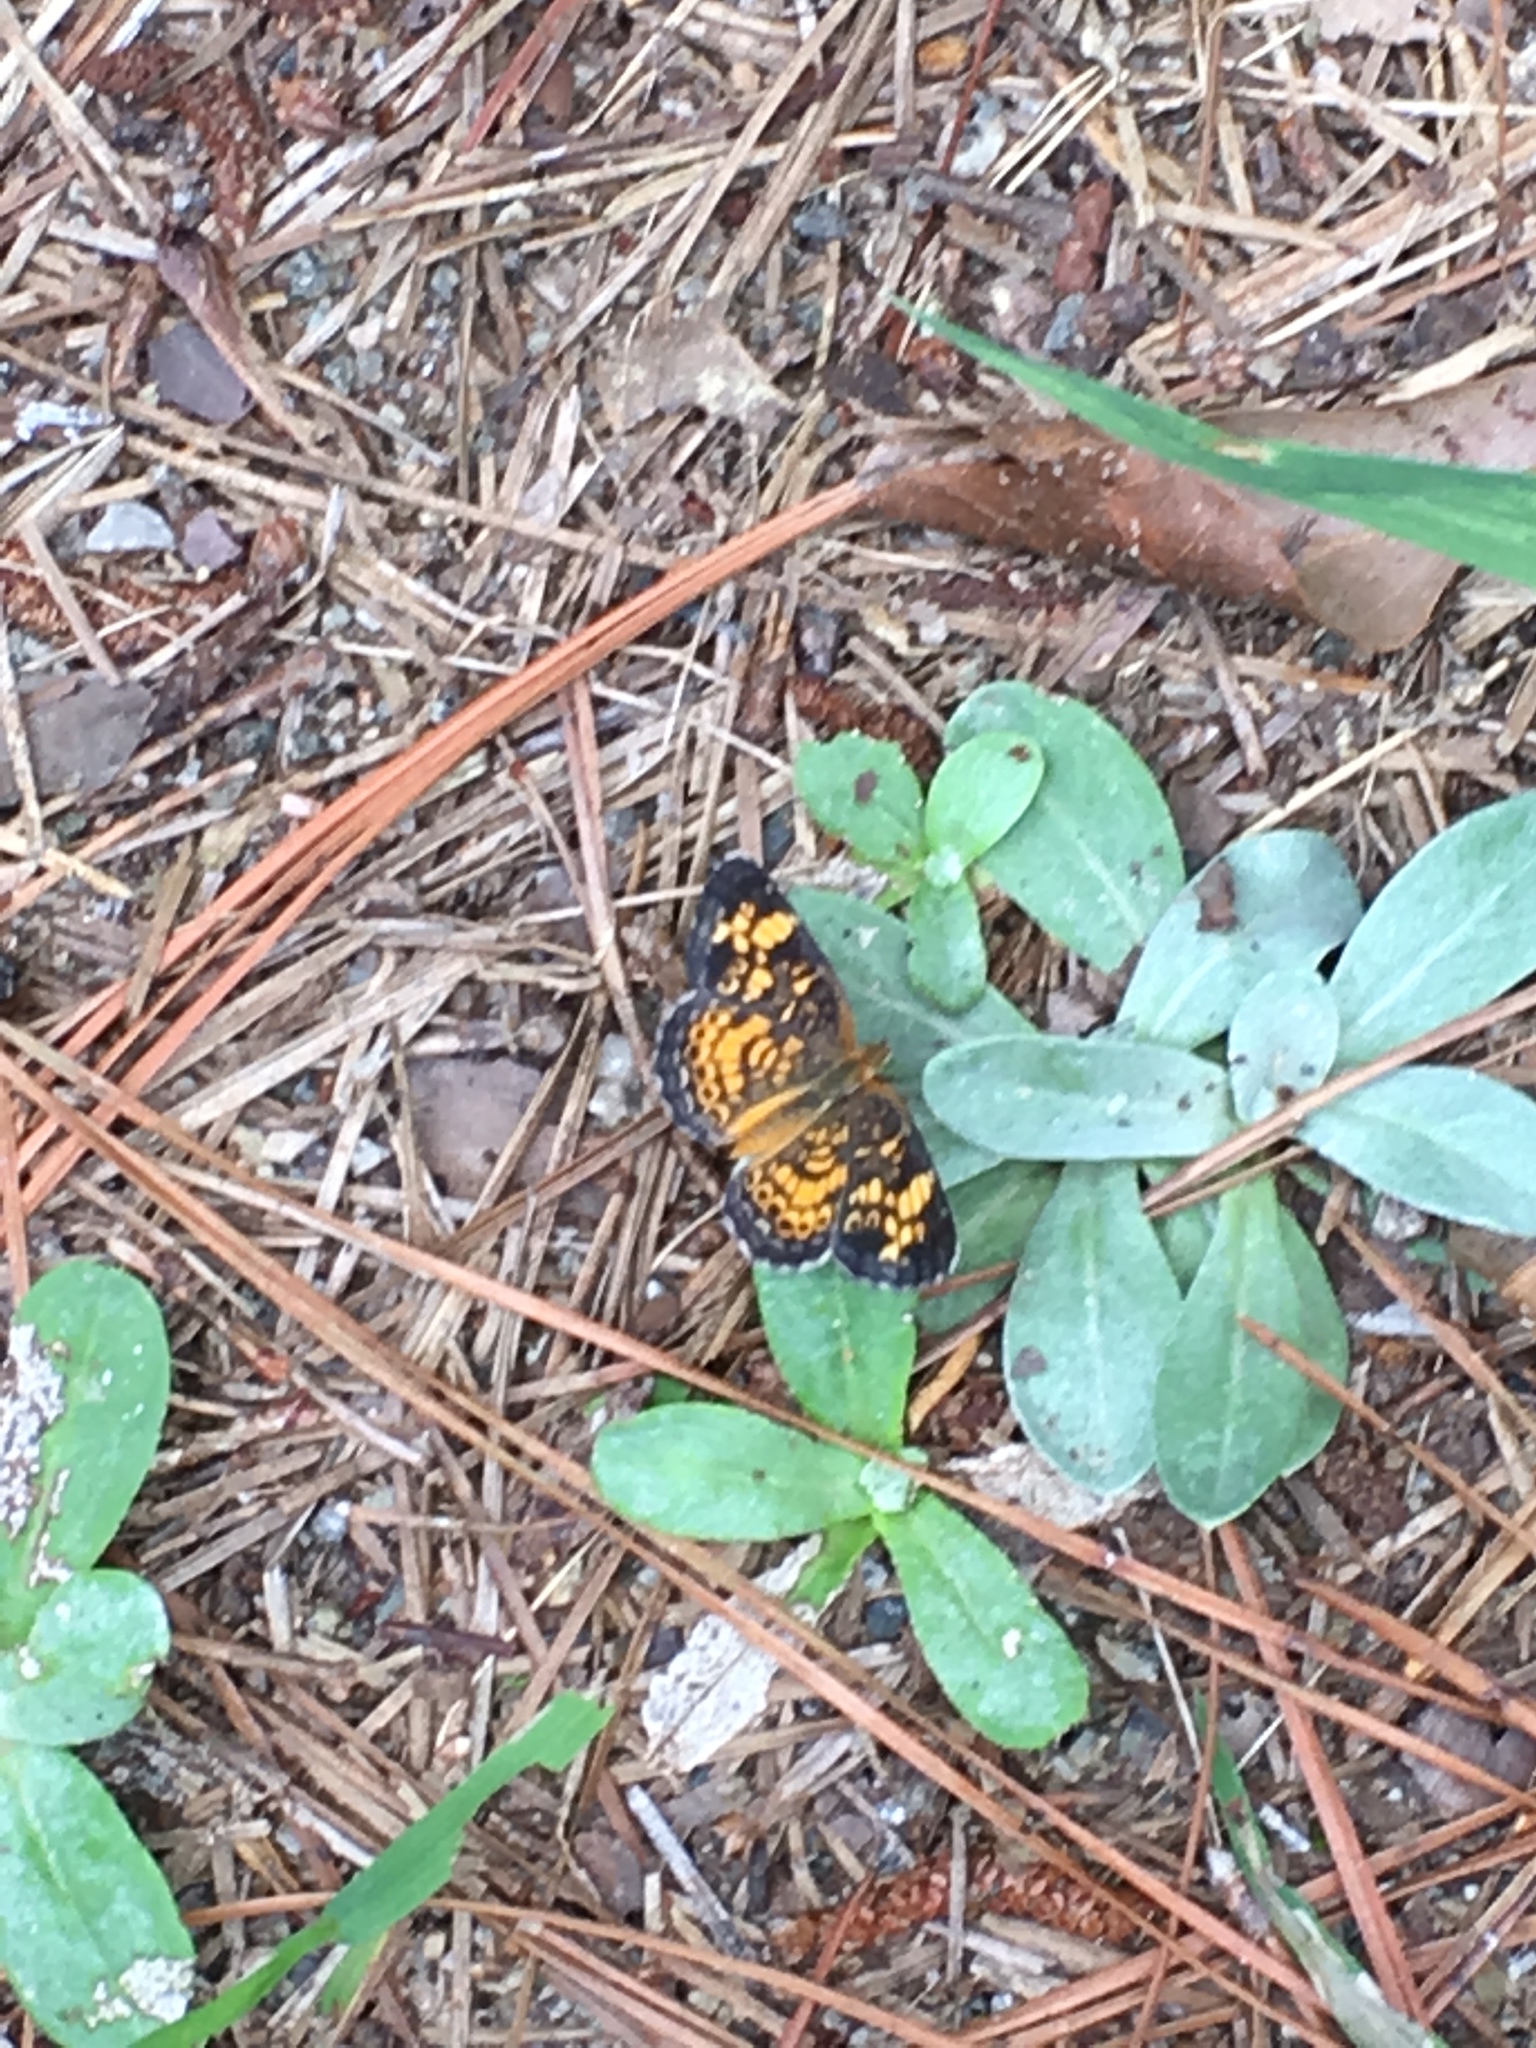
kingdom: Animalia
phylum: Arthropoda
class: Insecta
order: Lepidoptera
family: Nymphalidae
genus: Phyciodes
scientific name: Phyciodes tharos
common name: Pearl crescent
